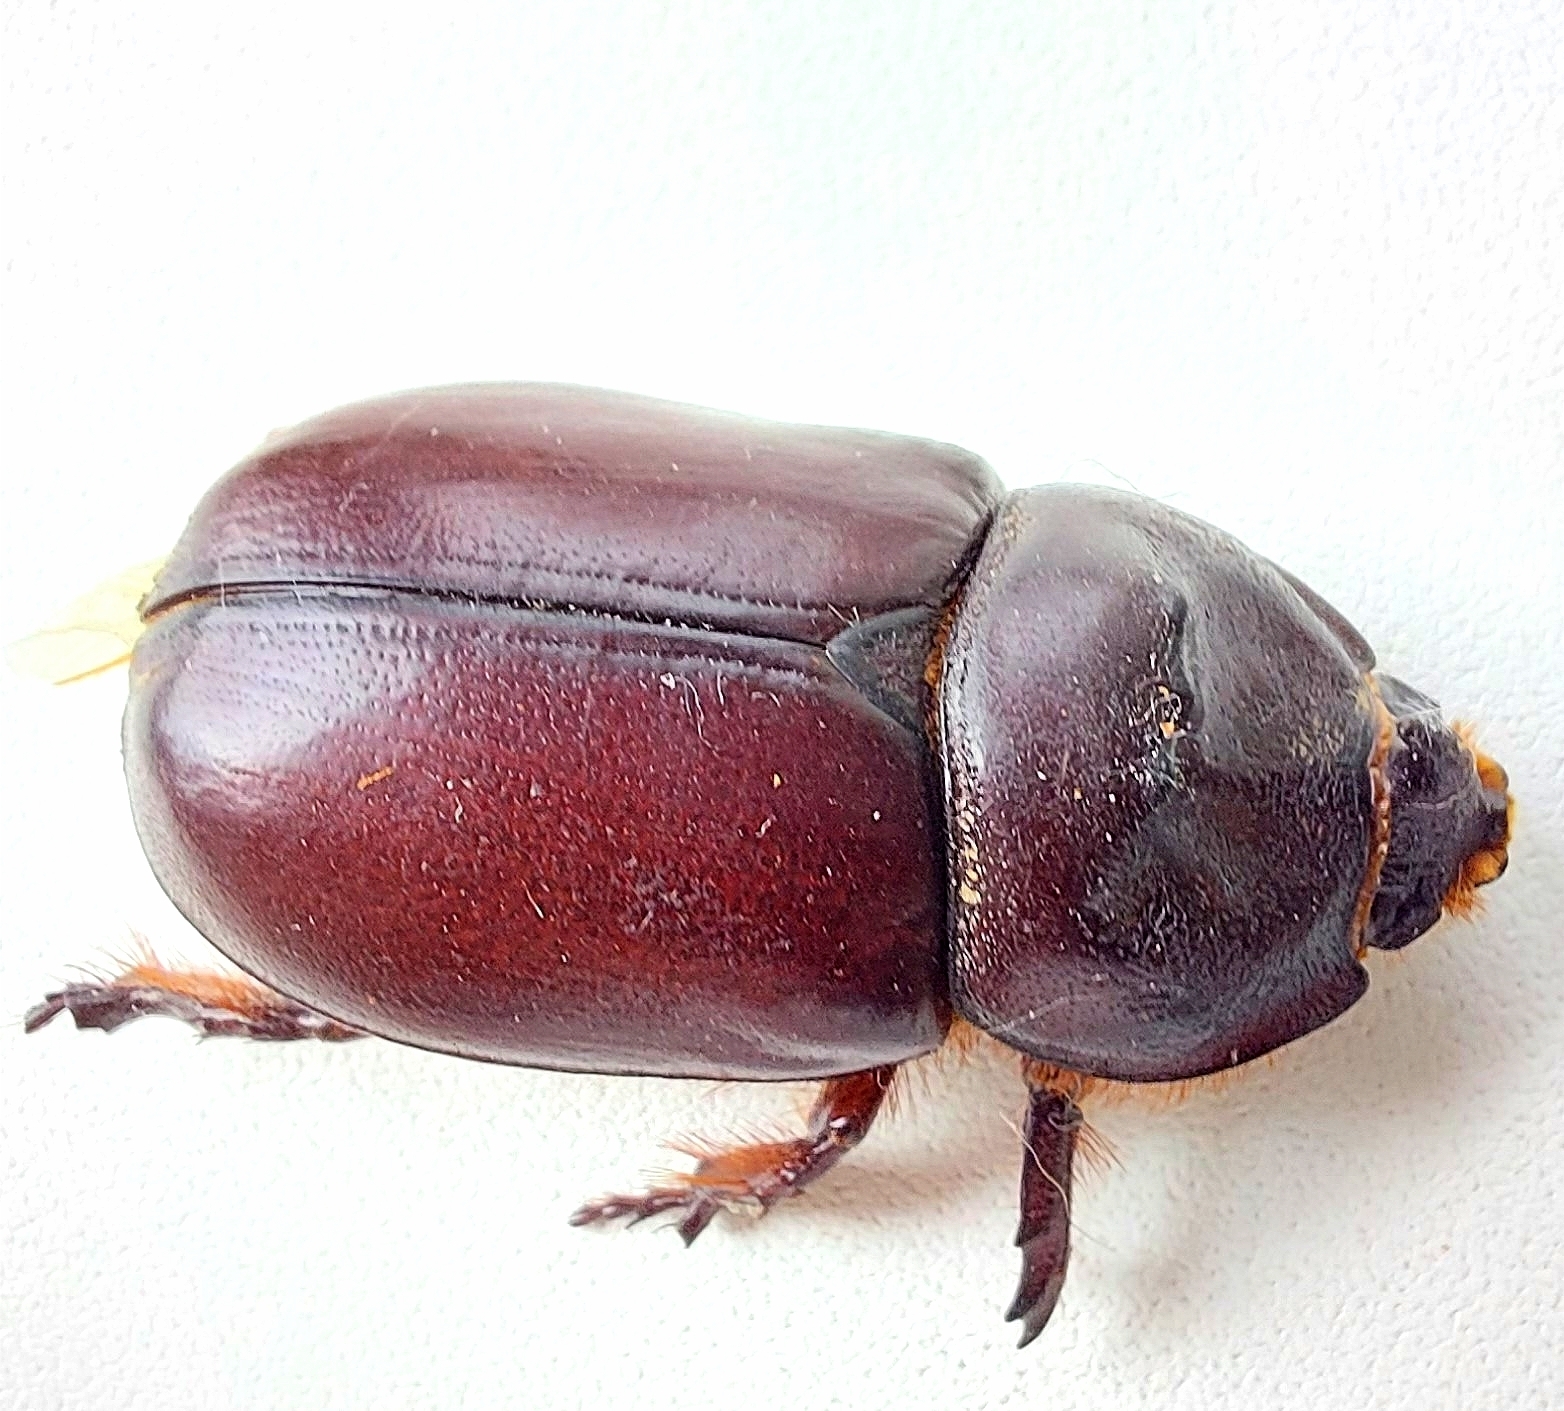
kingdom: Animalia
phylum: Arthropoda
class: Insecta
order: Coleoptera
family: Scarabaeidae
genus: Oryctes
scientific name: Oryctes nasicornis
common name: European rhinoceros beetle
